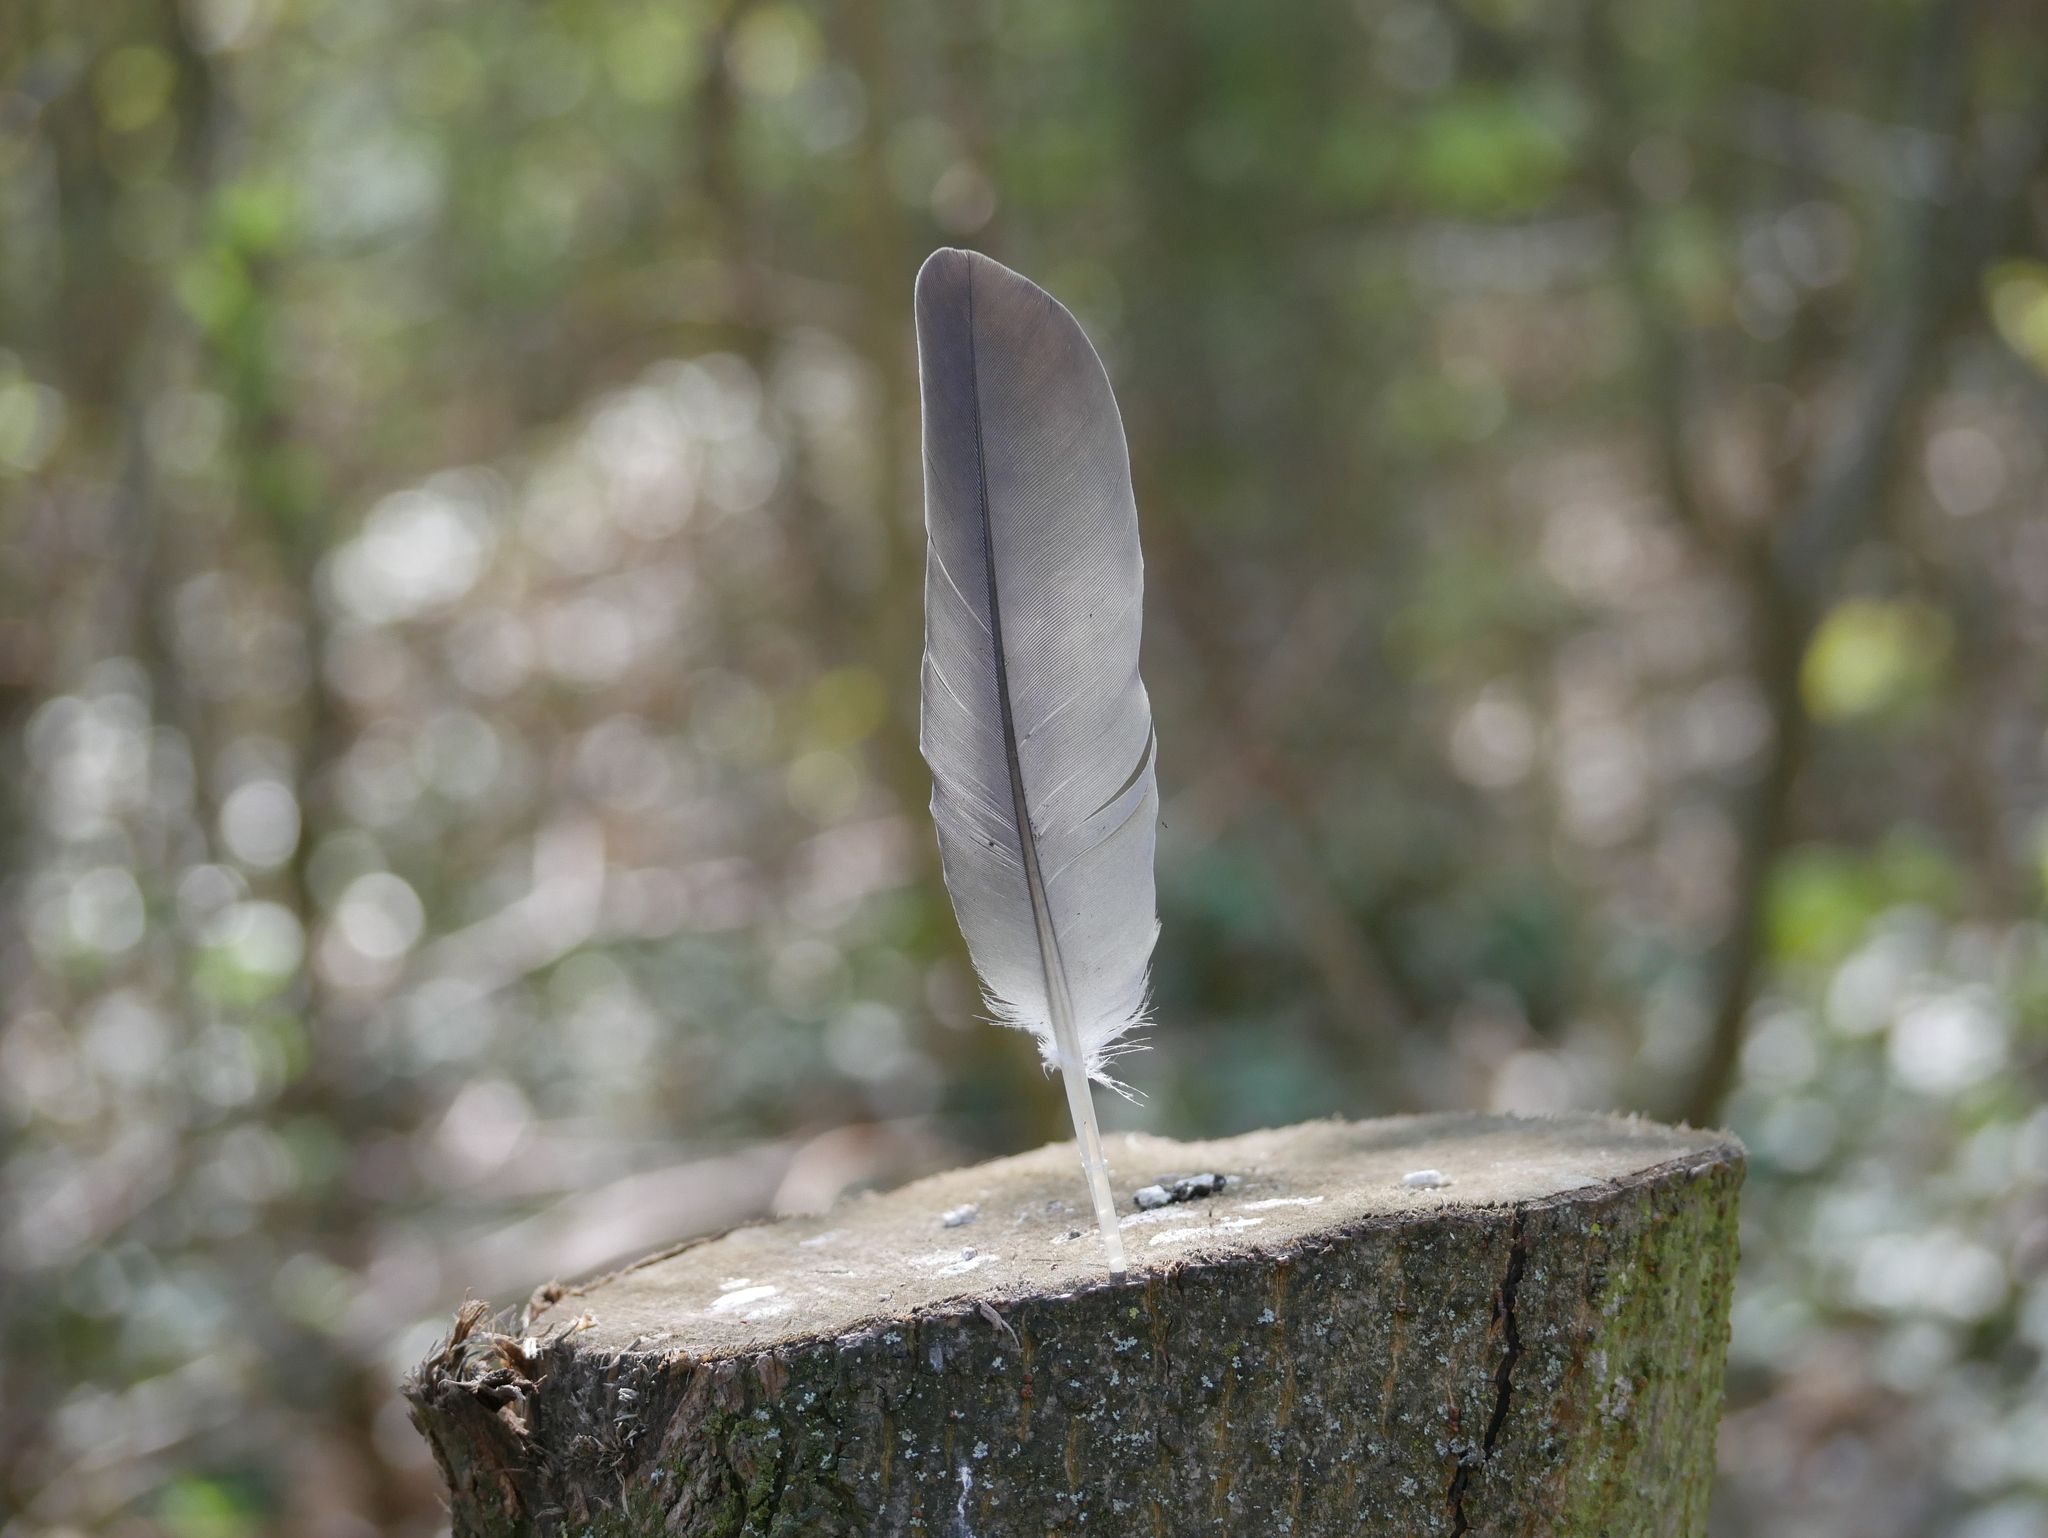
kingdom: Animalia
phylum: Chordata
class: Aves
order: Columbiformes
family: Columbidae
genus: Columba
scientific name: Columba palumbus
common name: Common wood pigeon
